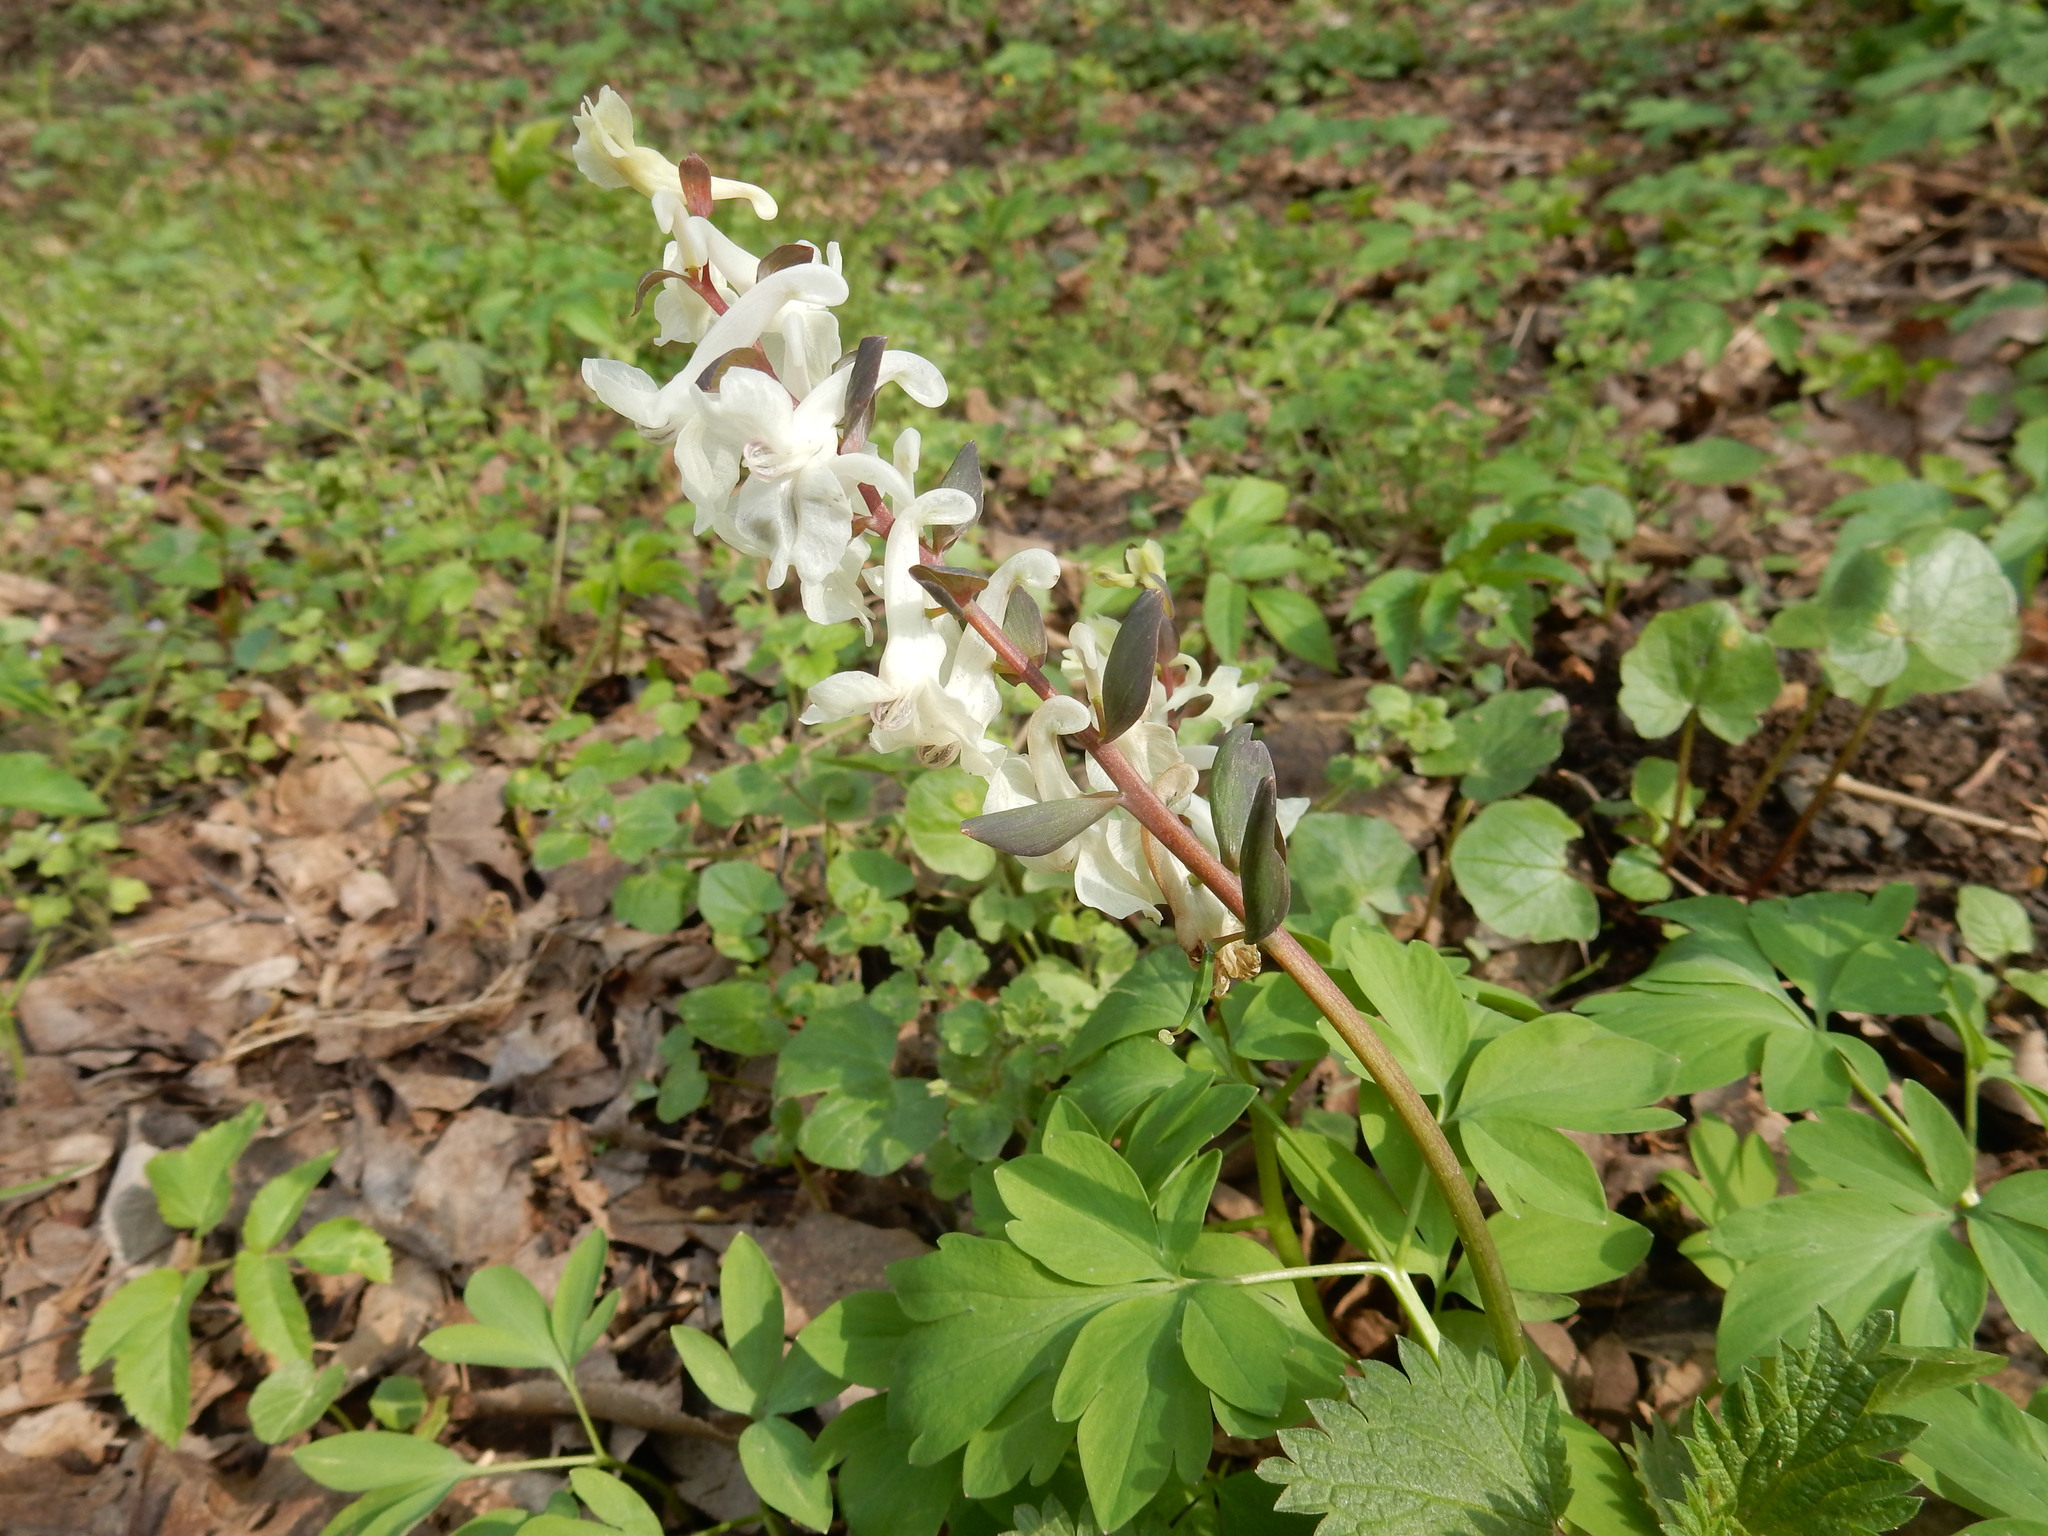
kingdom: Plantae
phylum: Tracheophyta
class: Magnoliopsida
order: Ranunculales
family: Papaveraceae
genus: Corydalis
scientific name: Corydalis cava
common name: Hollowroot
